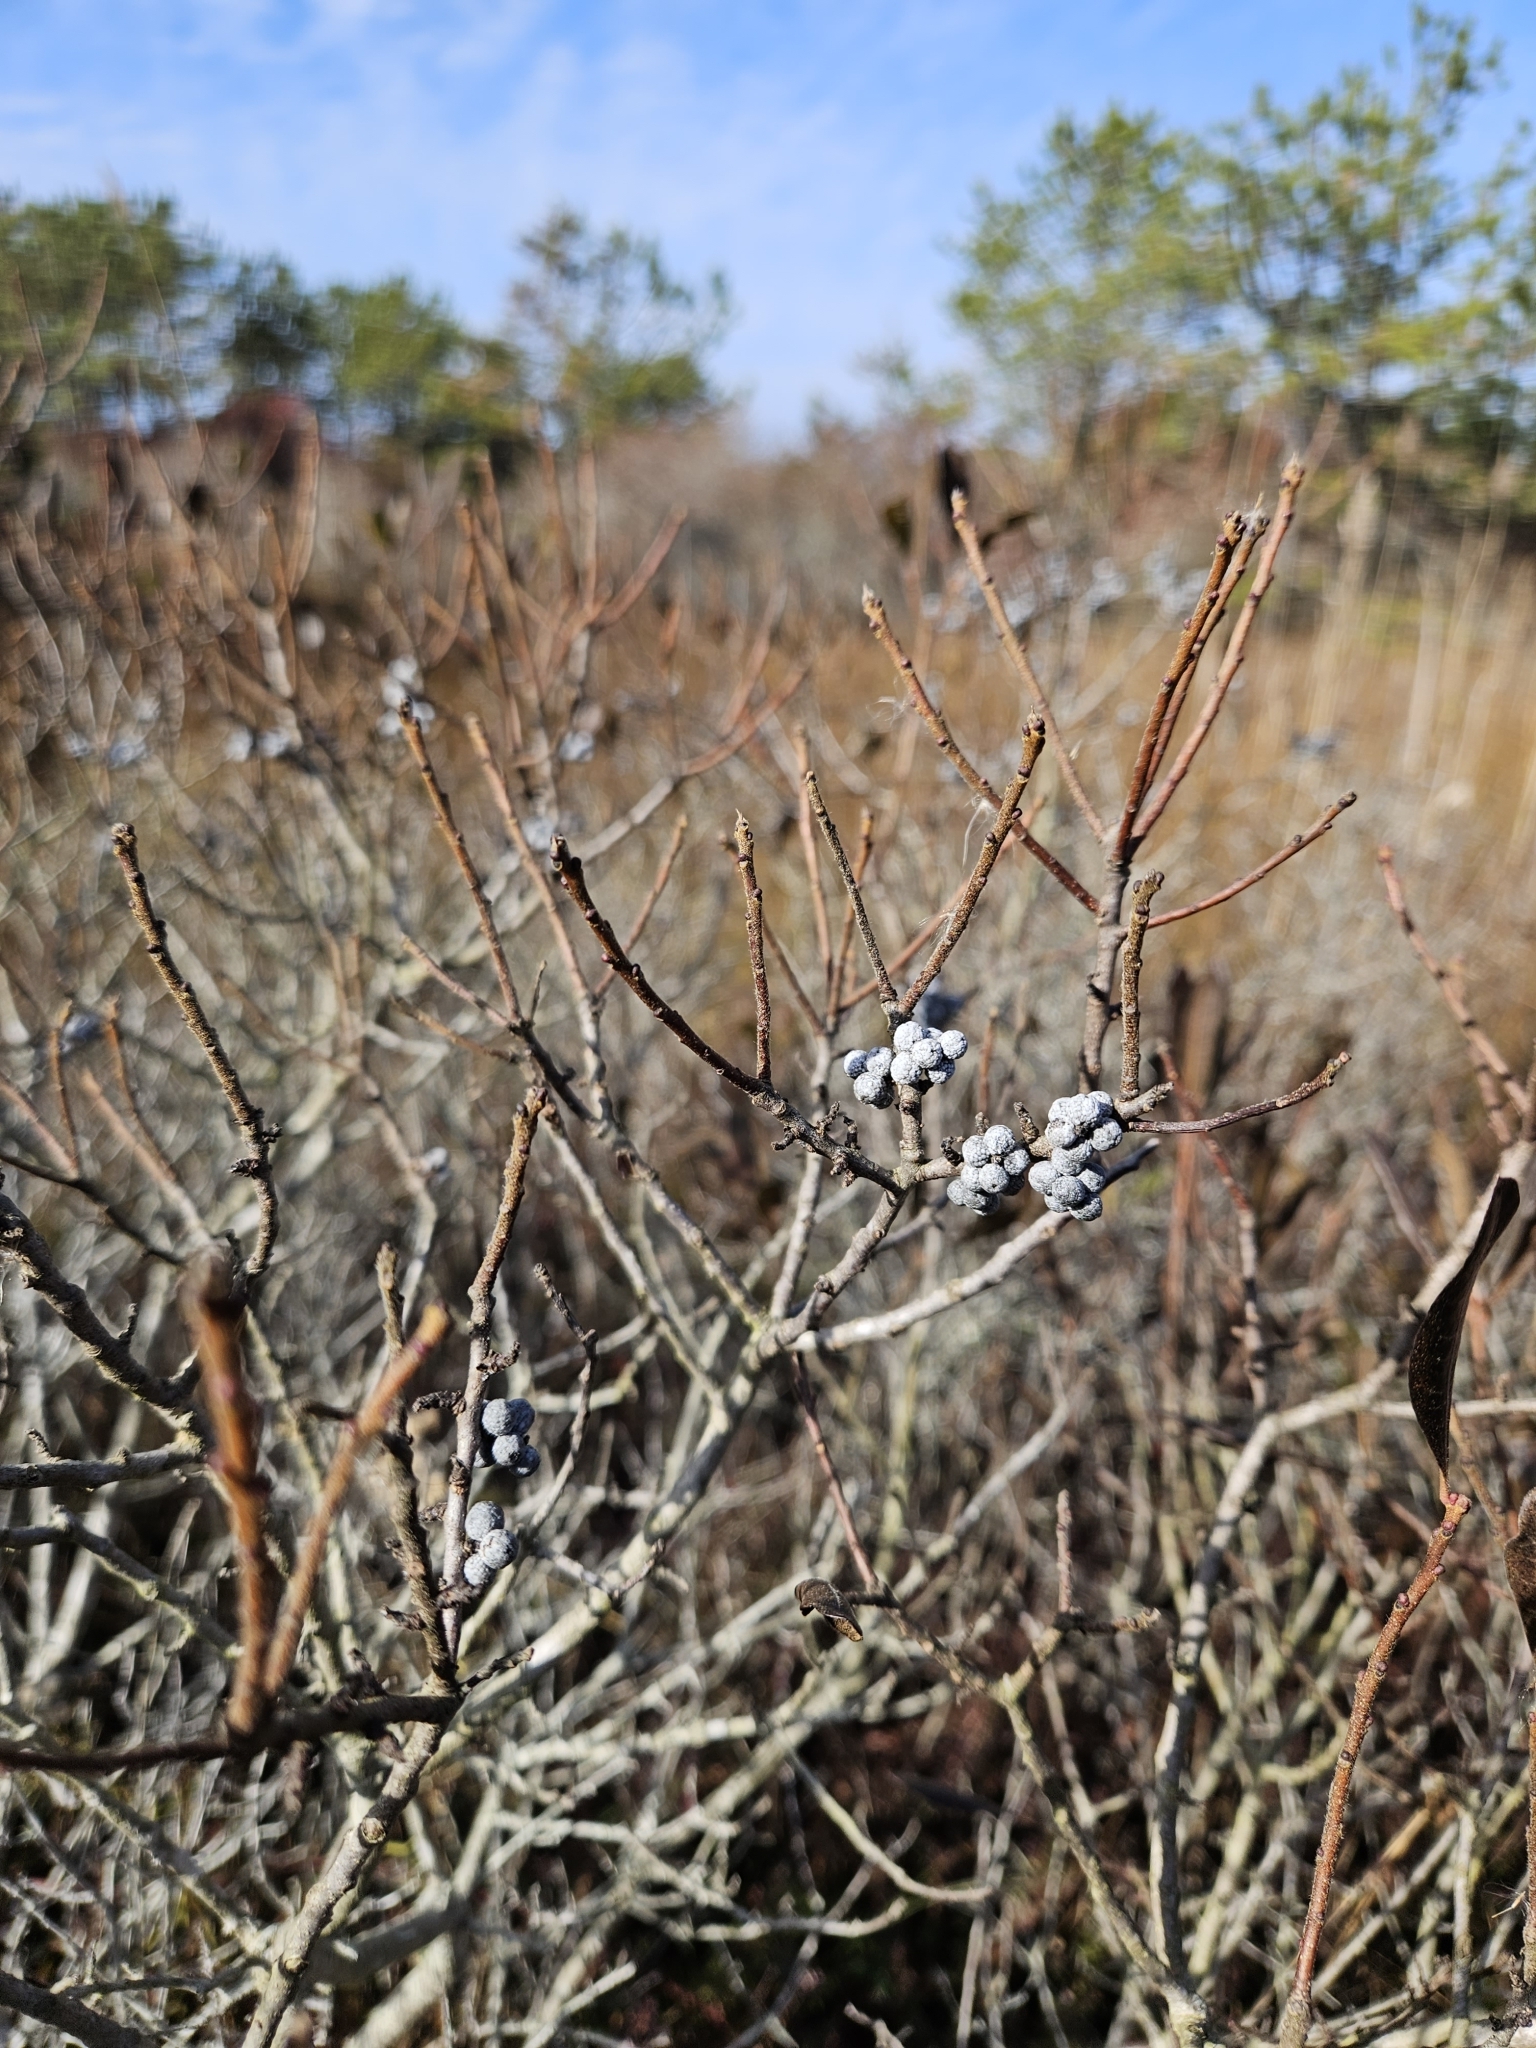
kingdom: Plantae
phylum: Tracheophyta
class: Magnoliopsida
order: Fagales
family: Myricaceae
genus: Morella
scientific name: Morella pensylvanica
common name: Northern bayberry
